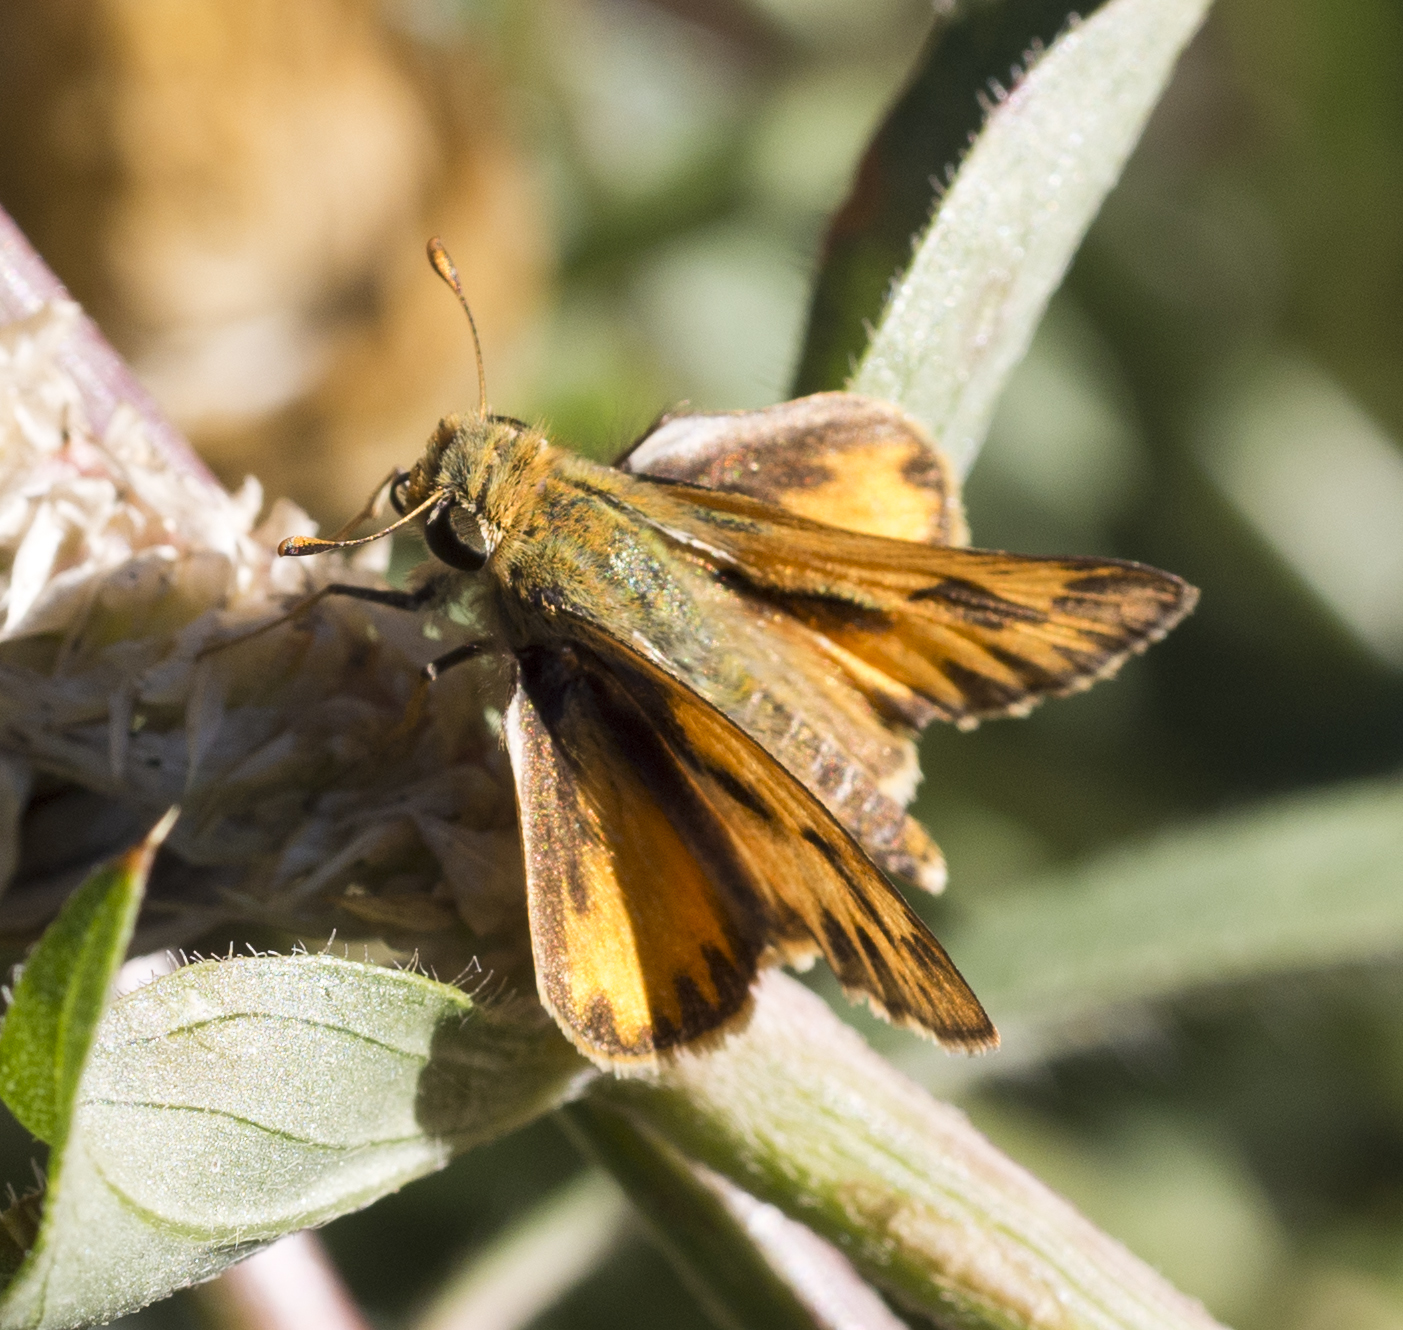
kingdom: Animalia
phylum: Arthropoda
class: Insecta
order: Lepidoptera
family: Hesperiidae
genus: Hylephila
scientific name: Hylephila phyleus
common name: Fiery skipper
